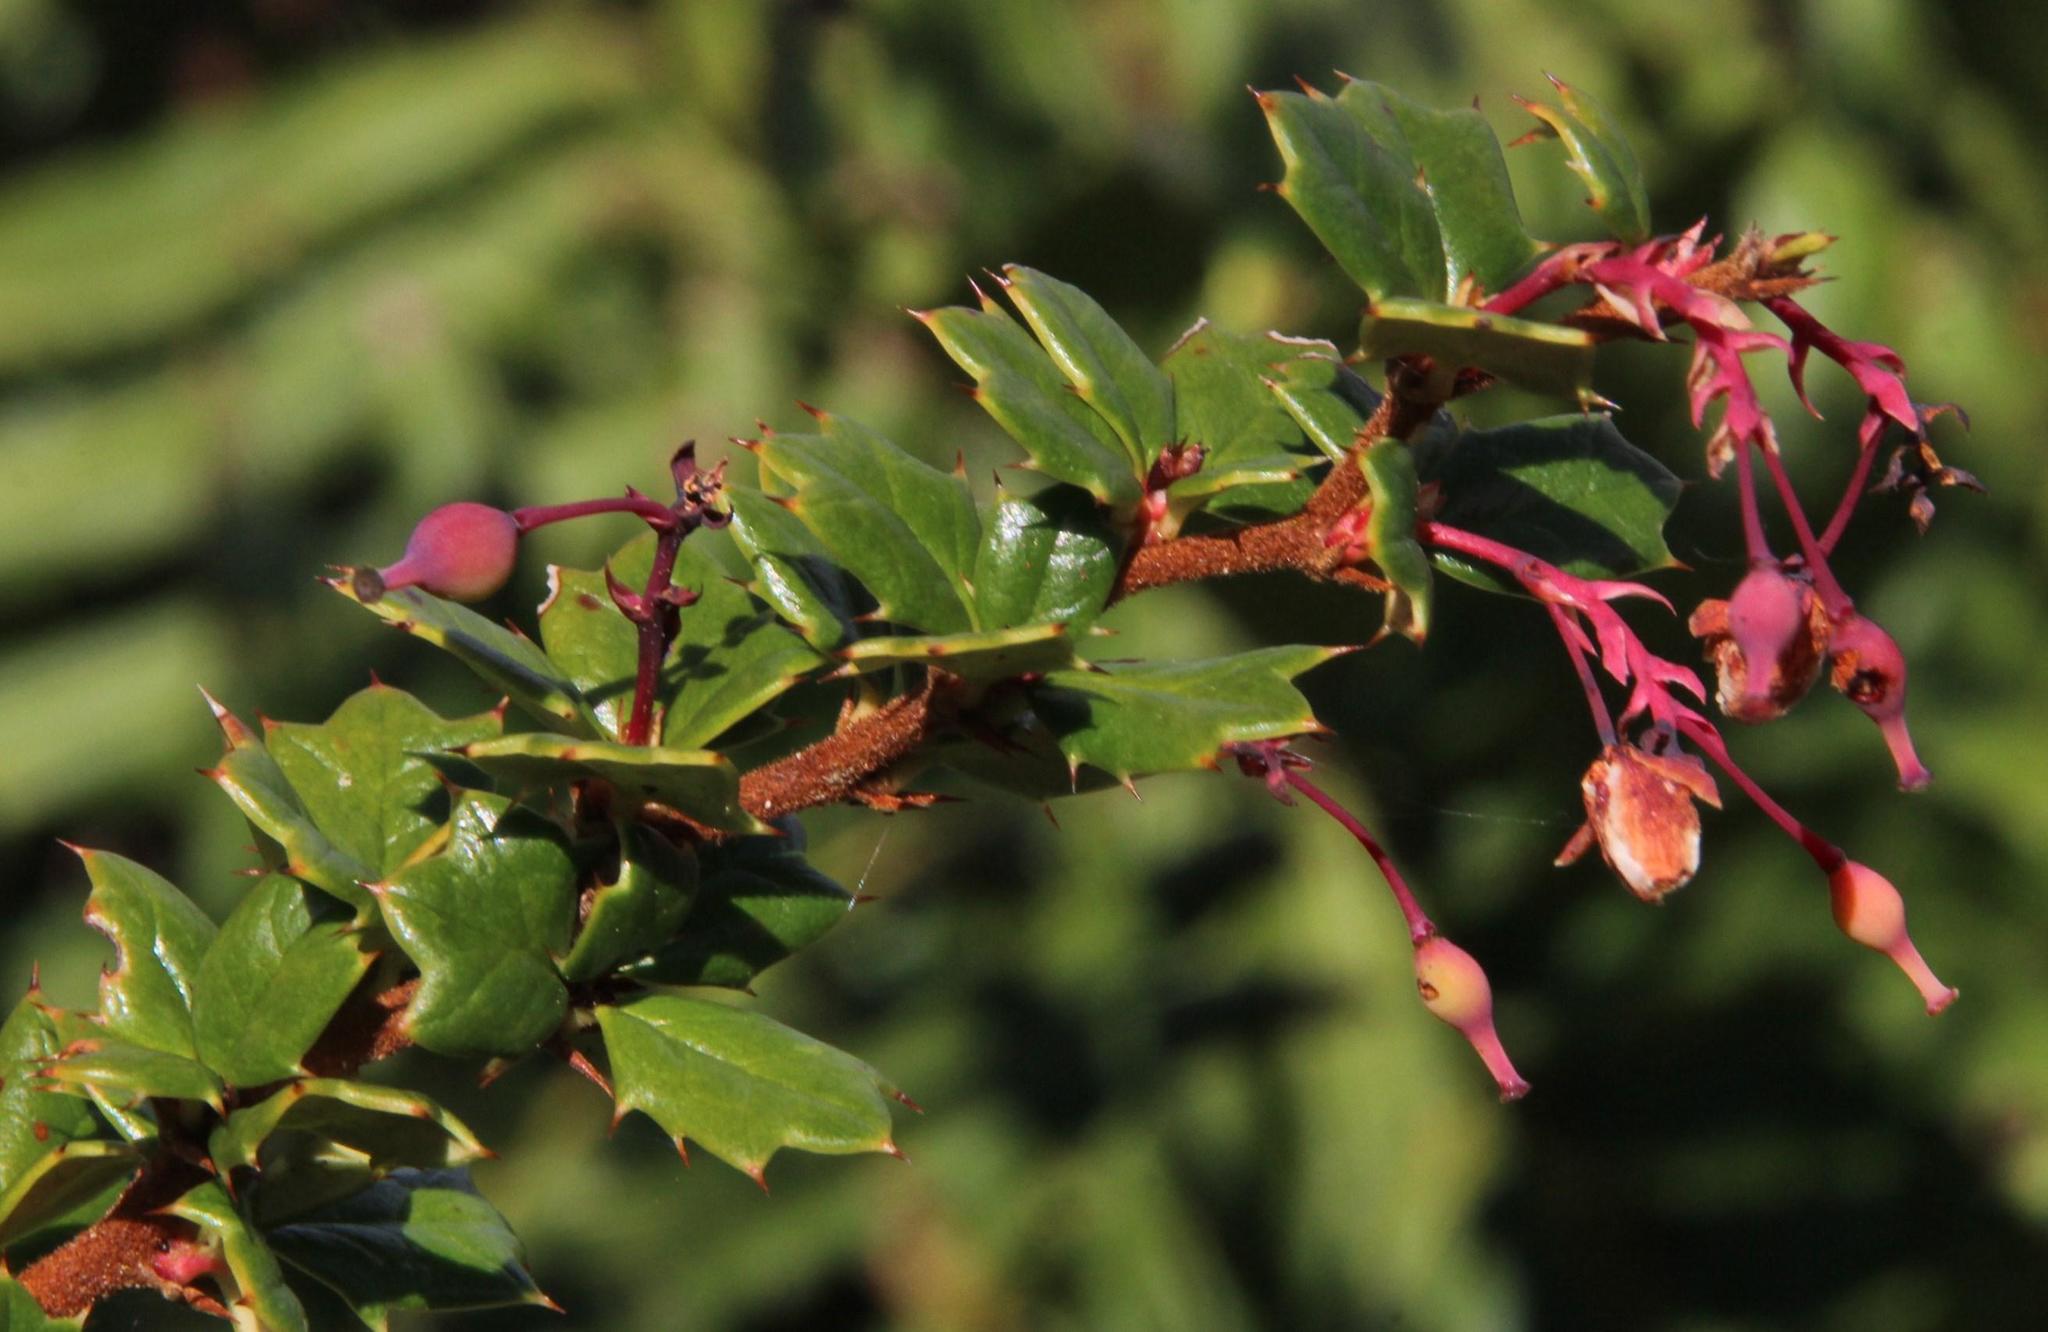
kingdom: Plantae
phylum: Tracheophyta
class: Magnoliopsida
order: Ranunculales
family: Berberidaceae
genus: Berberis
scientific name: Berberis darwinii
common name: Darwin's barberry
